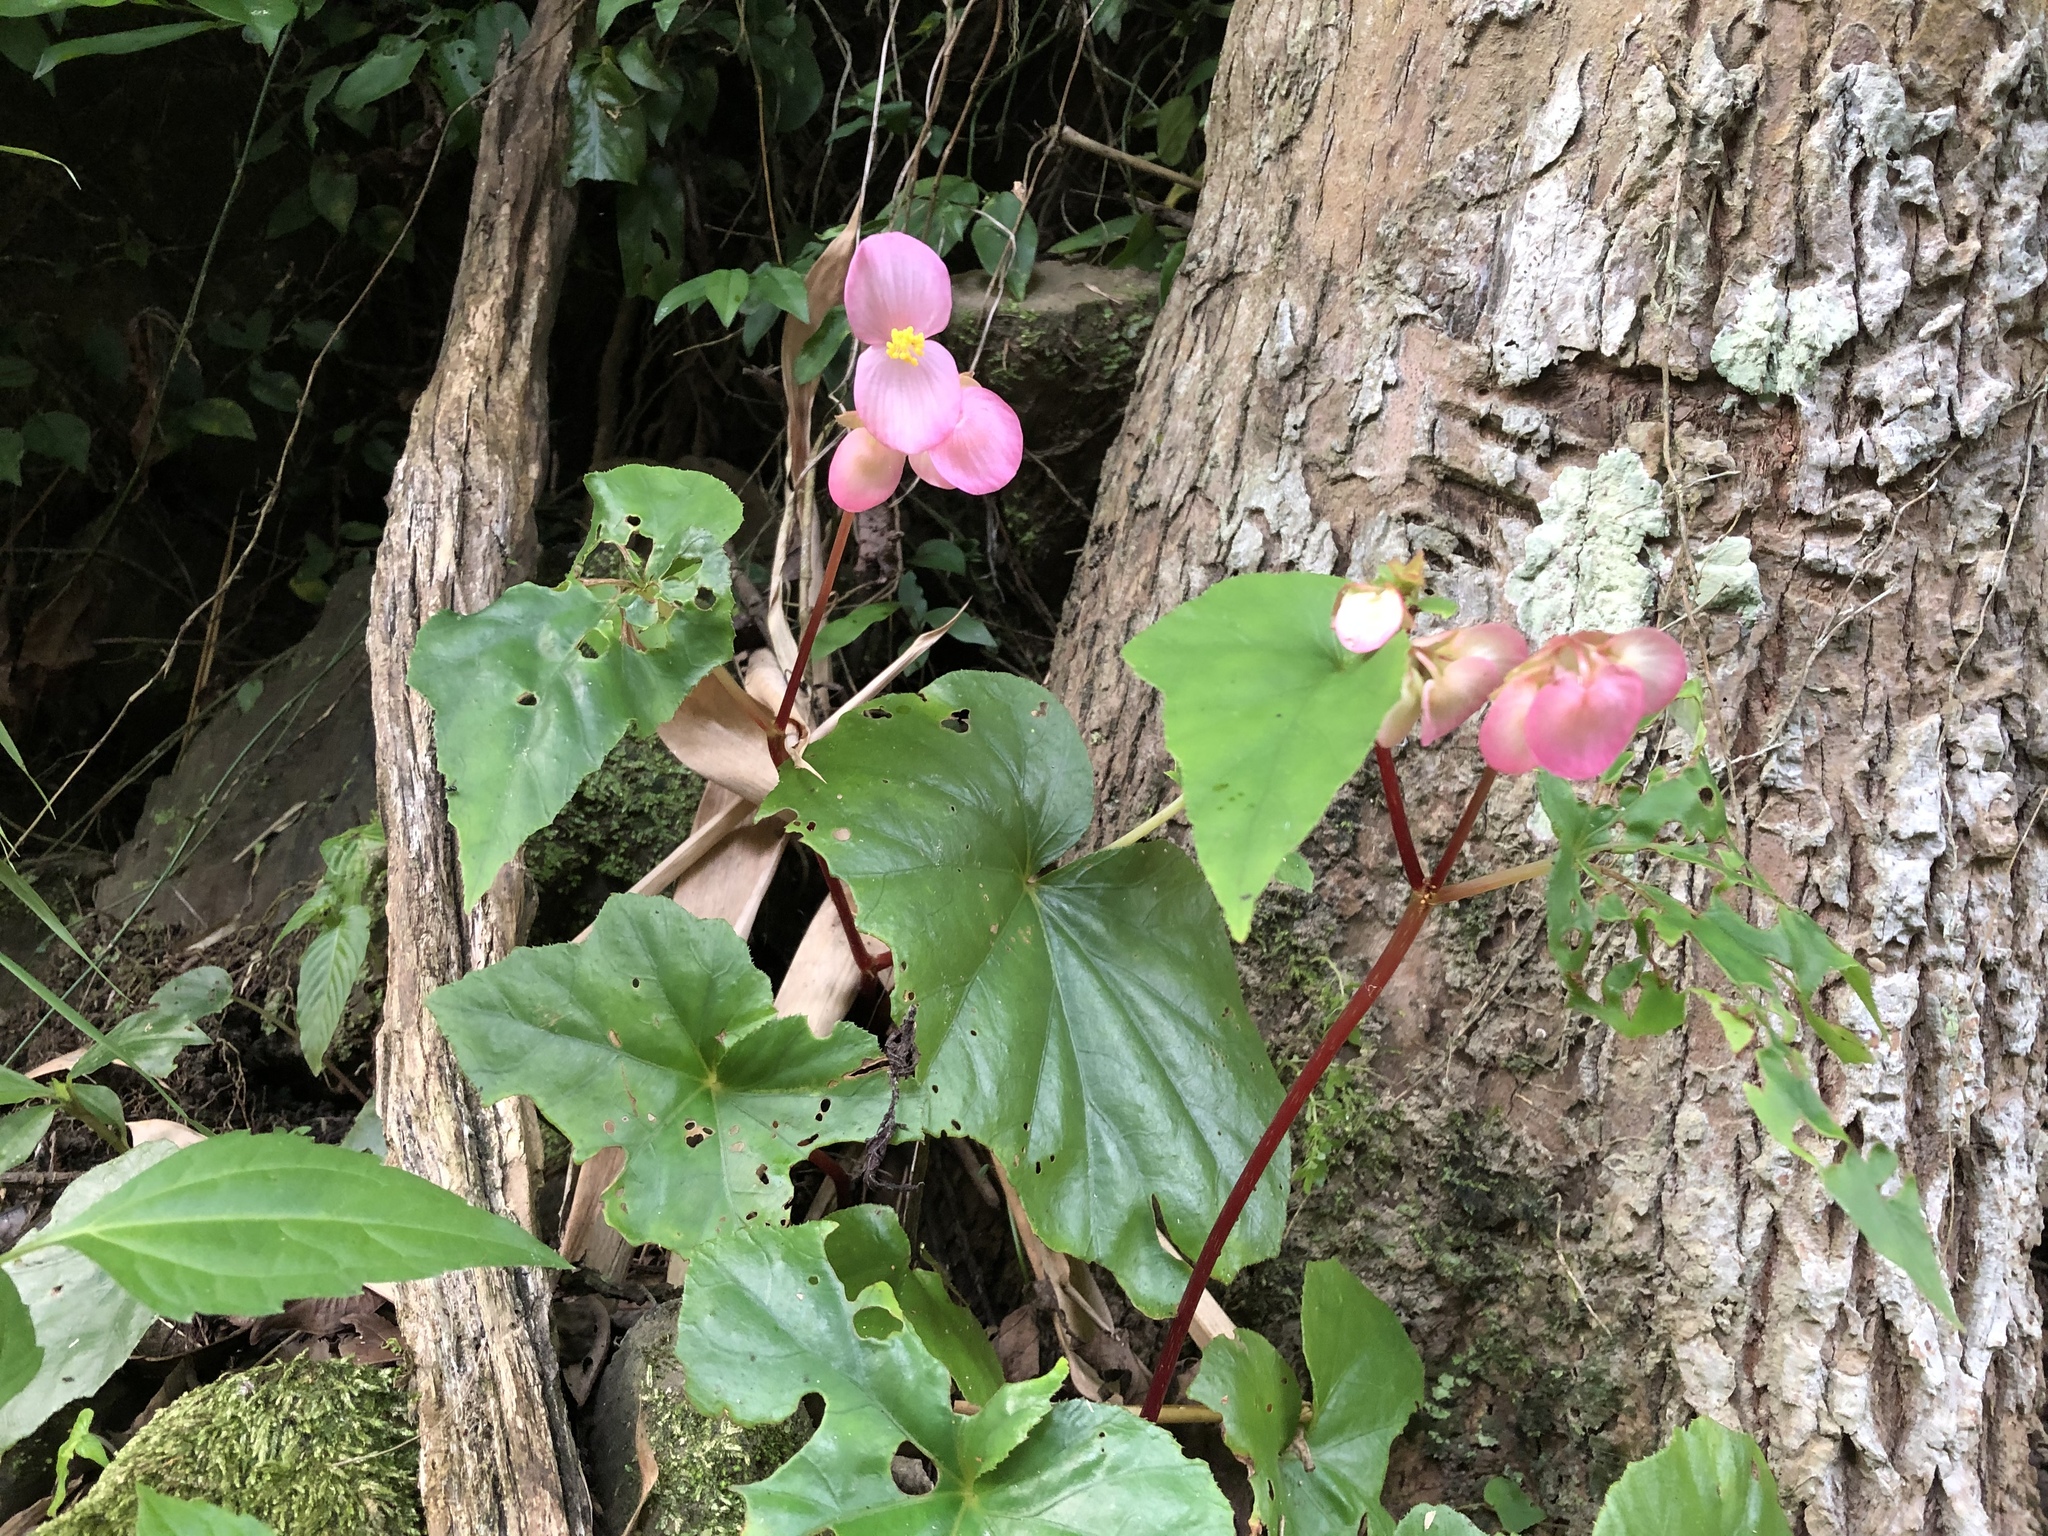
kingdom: Plantae
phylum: Tracheophyta
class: Magnoliopsida
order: Cucurbitales
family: Begoniaceae
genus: Begonia
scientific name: Begonia ravenii
